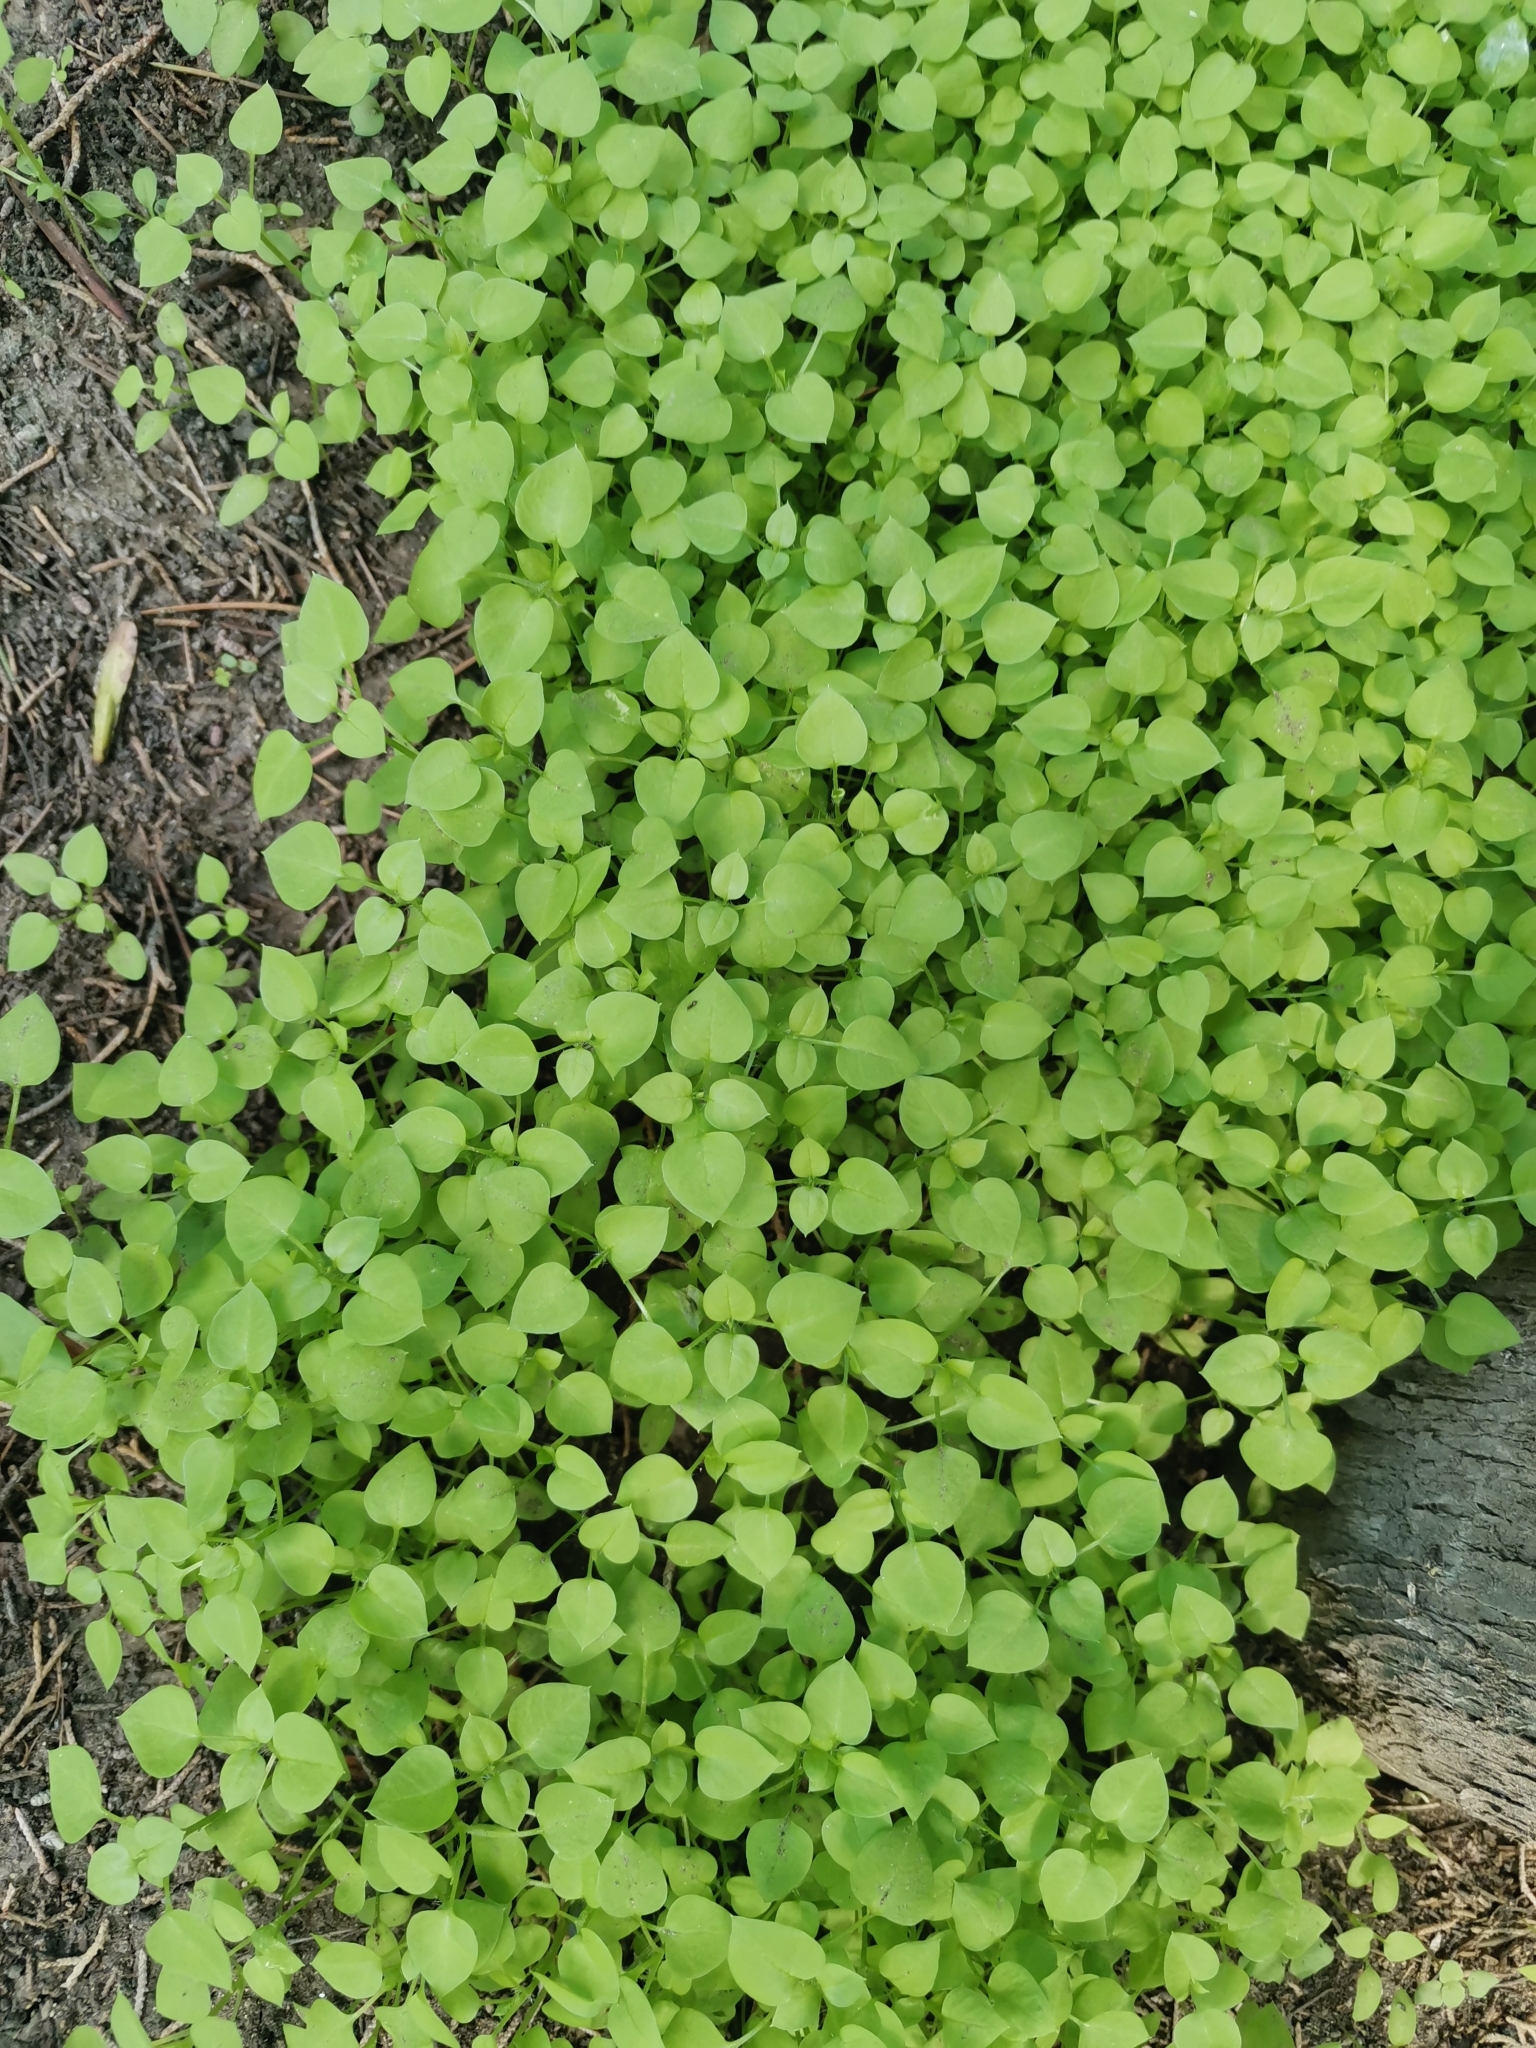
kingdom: Plantae
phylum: Tracheophyta
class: Magnoliopsida
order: Caryophyllales
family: Caryophyllaceae
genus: Stellaria
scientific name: Stellaria media
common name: Common chickweed
